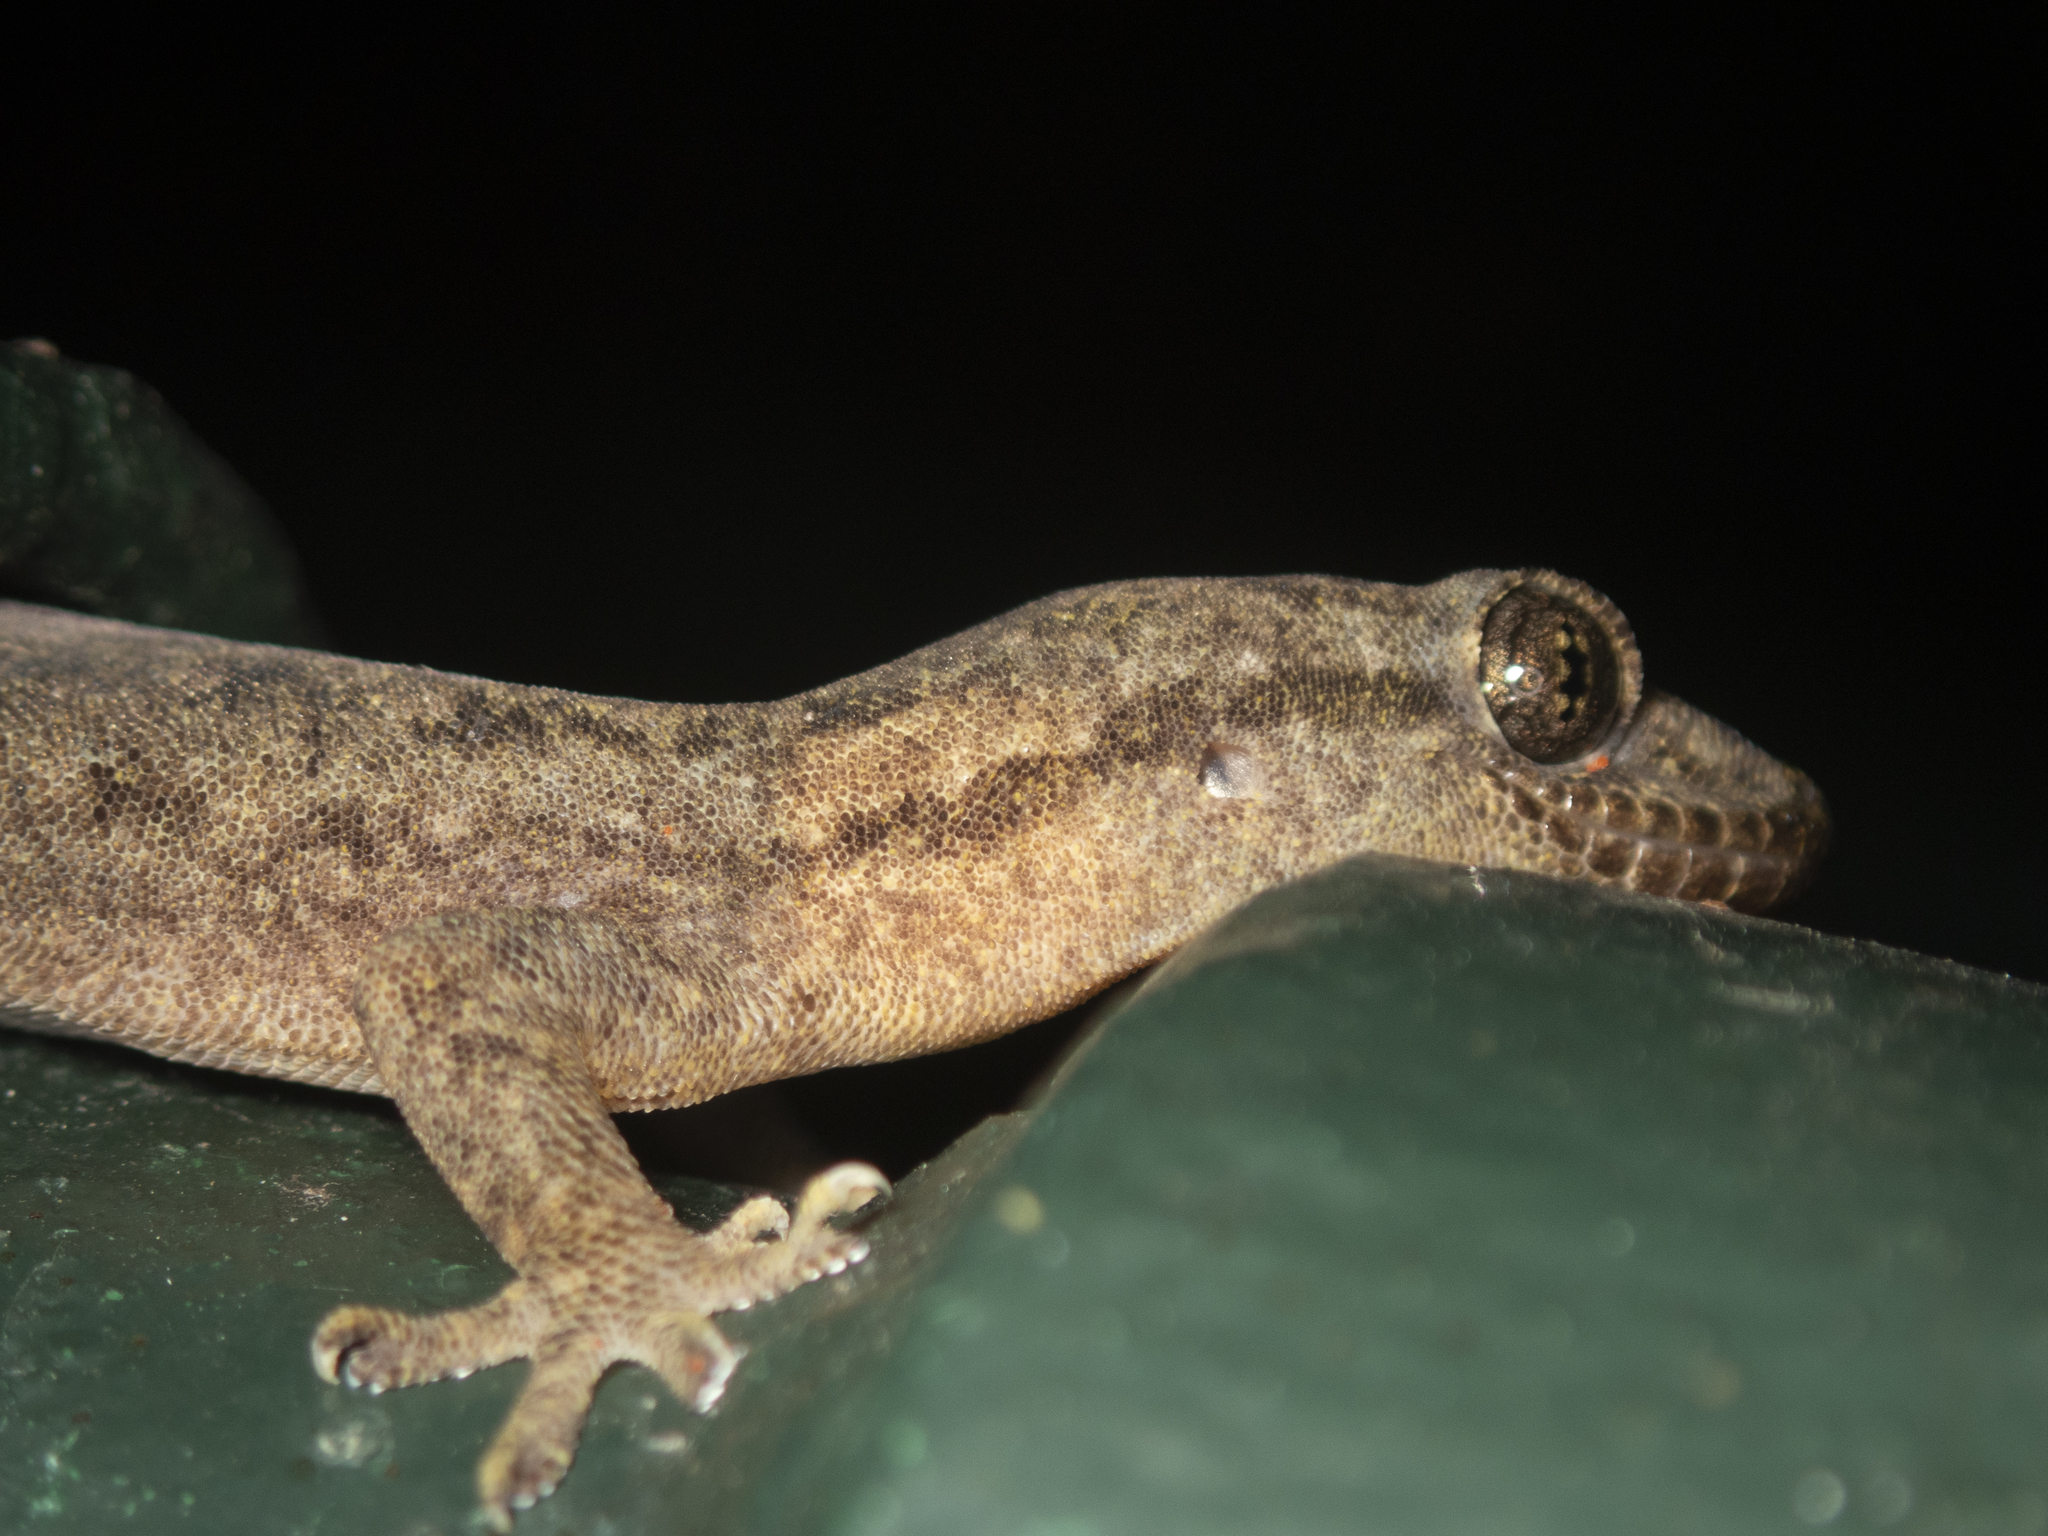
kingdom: Animalia
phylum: Chordata
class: Squamata
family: Gekkonidae
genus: Gekko
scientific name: Gekko chinensis
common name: Gray's chinese gecko
